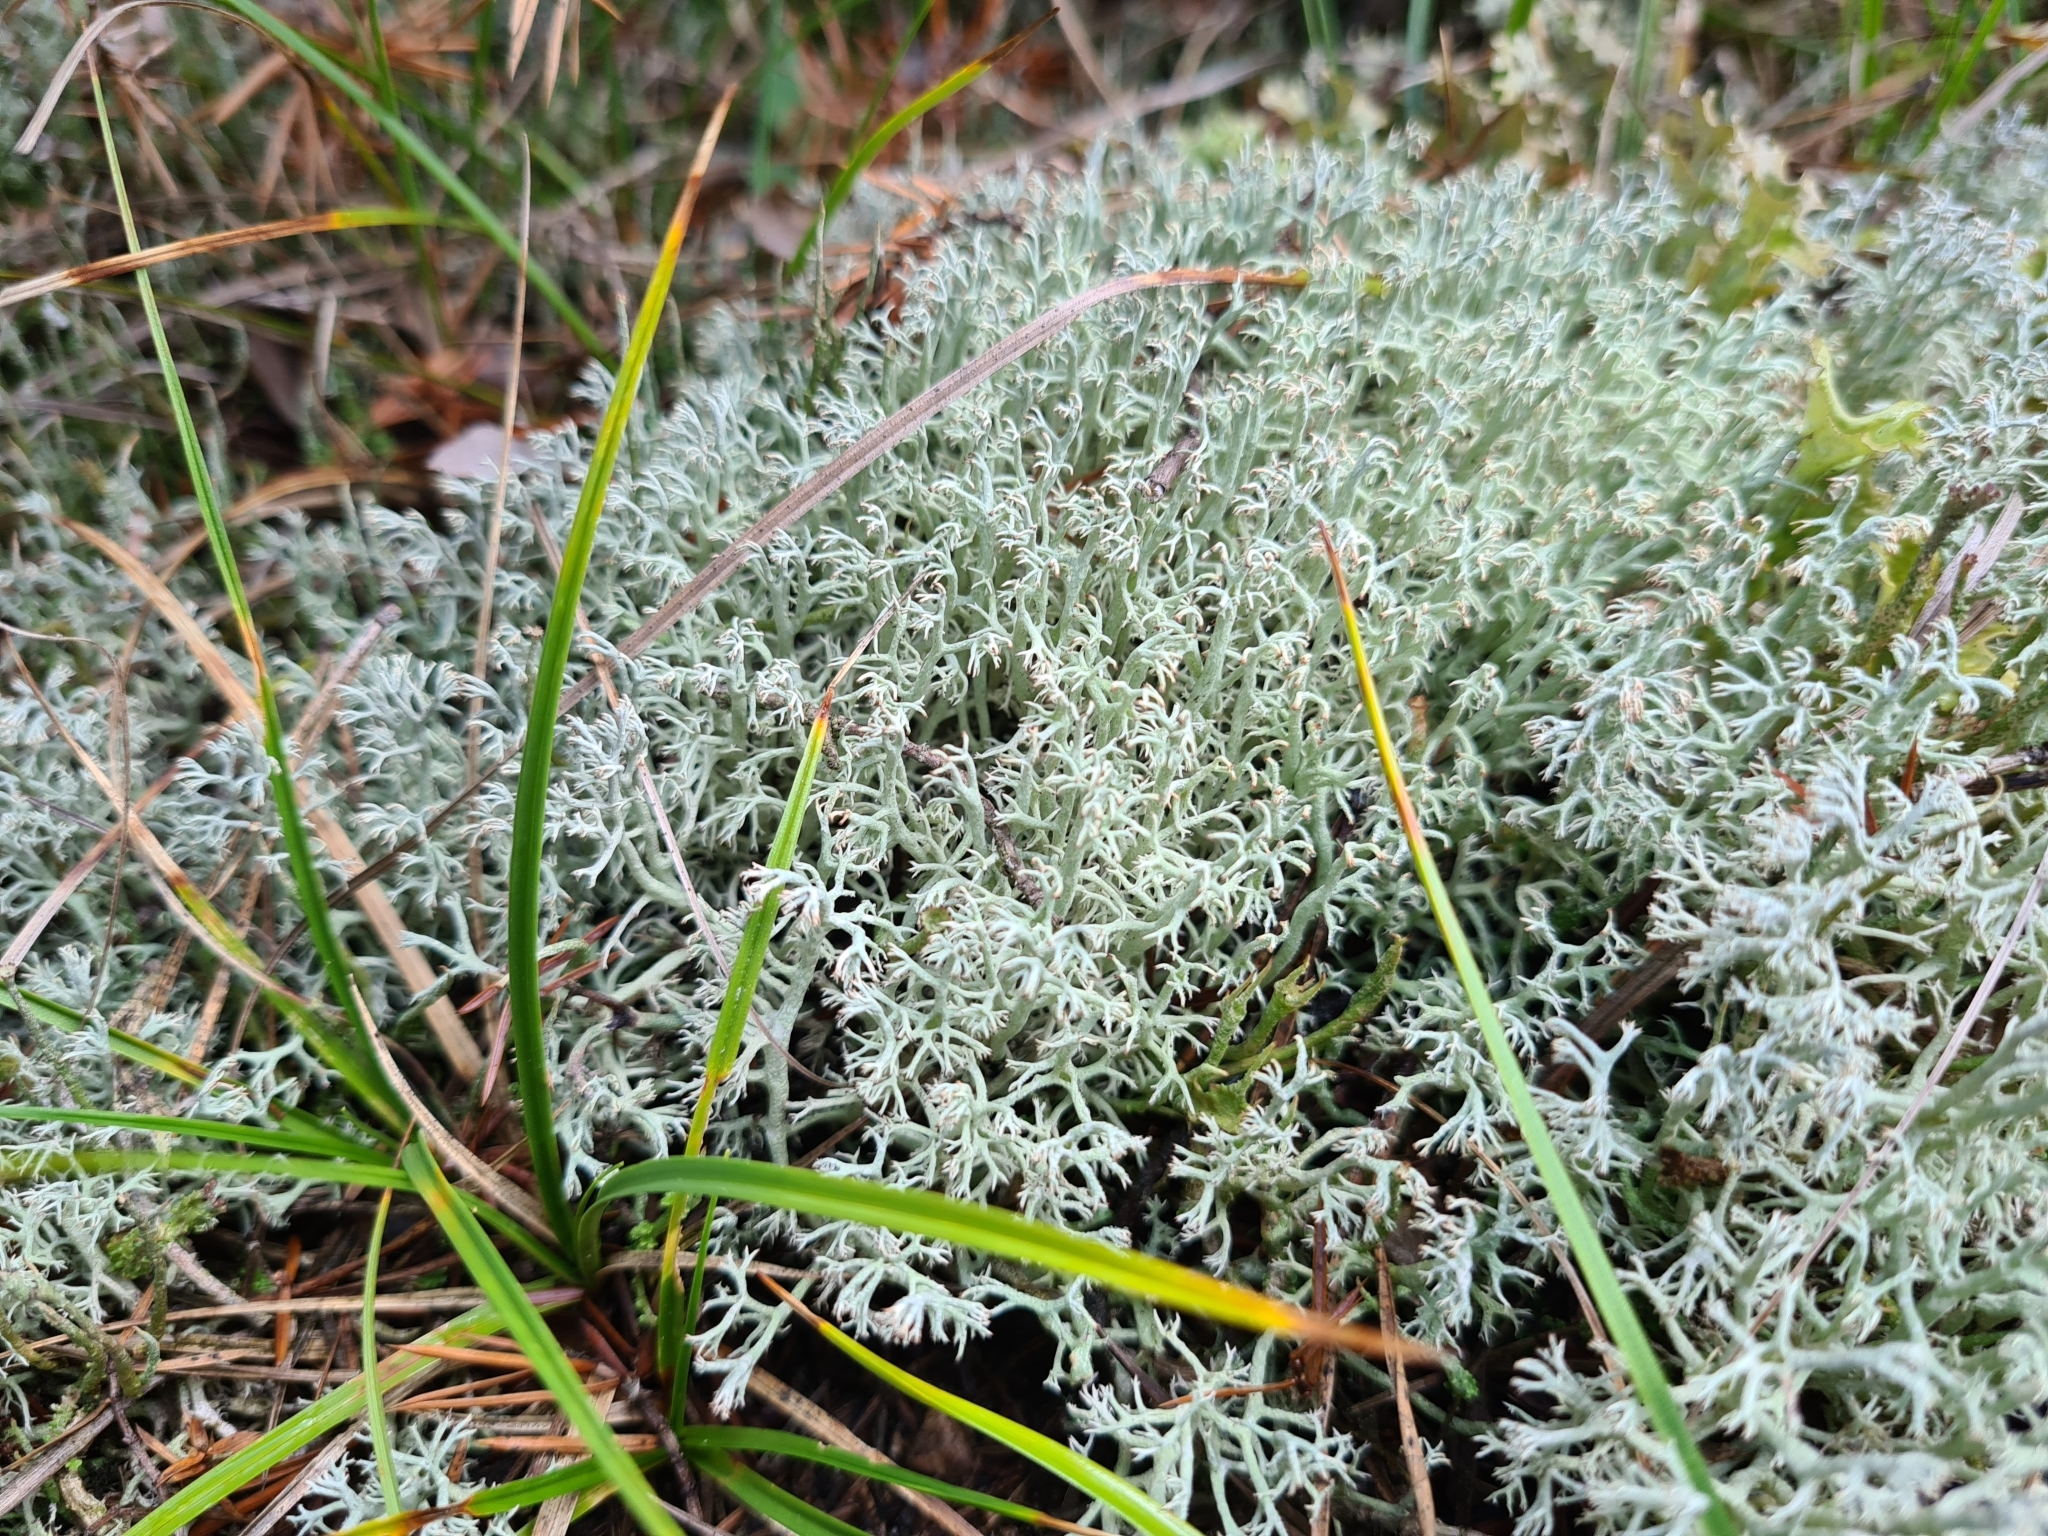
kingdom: Fungi
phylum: Ascomycota
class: Lecanoromycetes
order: Lecanorales
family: Cladoniaceae
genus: Cladonia
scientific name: Cladonia arbuscula
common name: Reindeer lichen
